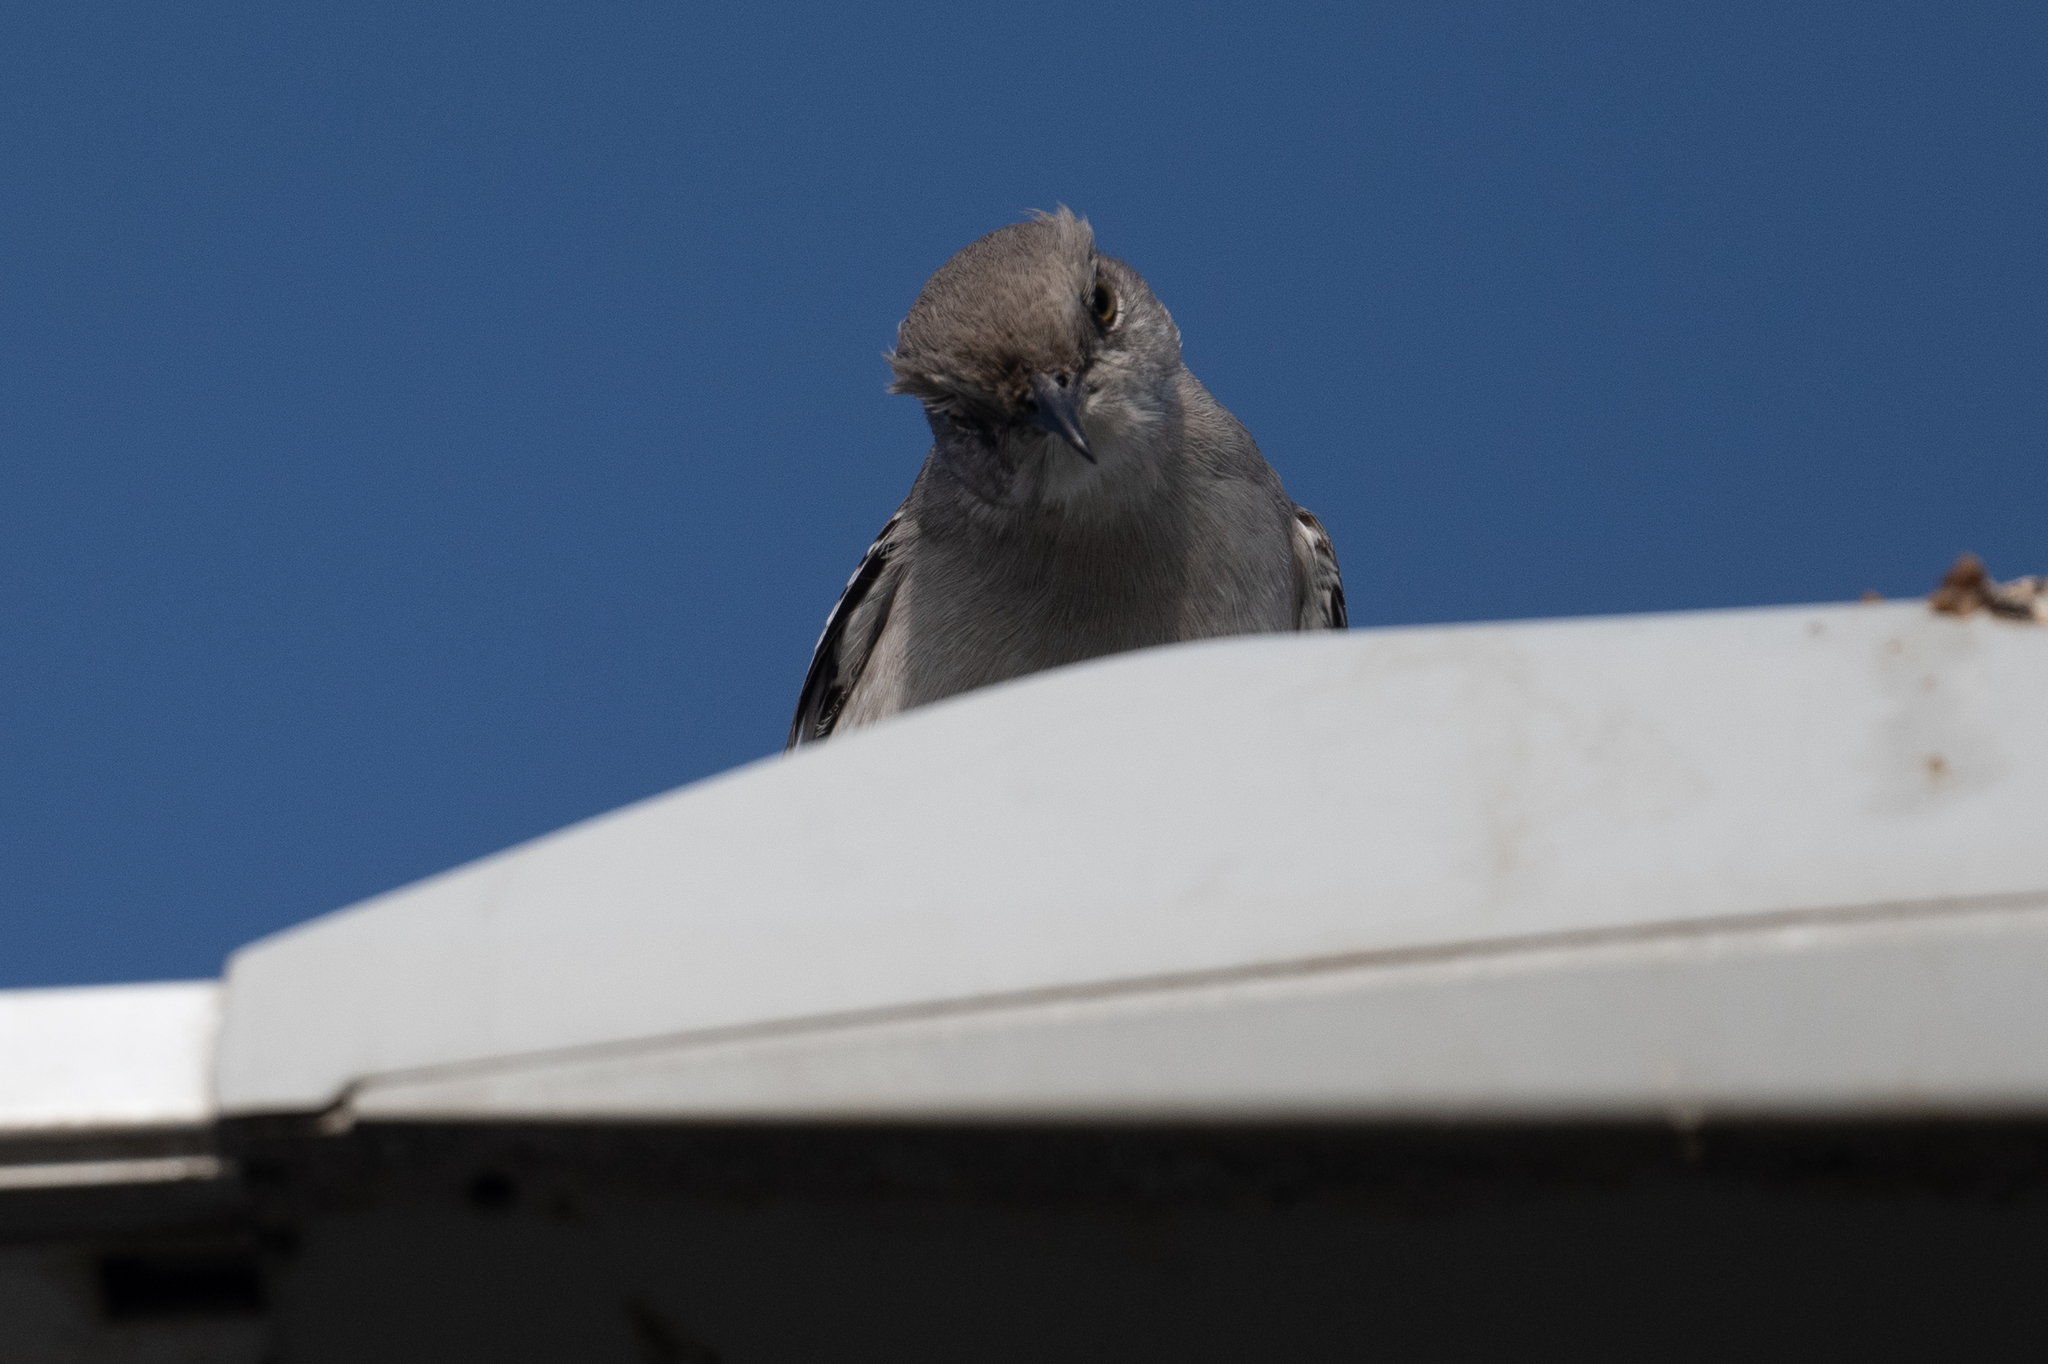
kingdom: Animalia
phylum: Chordata
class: Aves
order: Passeriformes
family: Mimidae
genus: Mimus
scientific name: Mimus polyglottos
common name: Northern mockingbird
